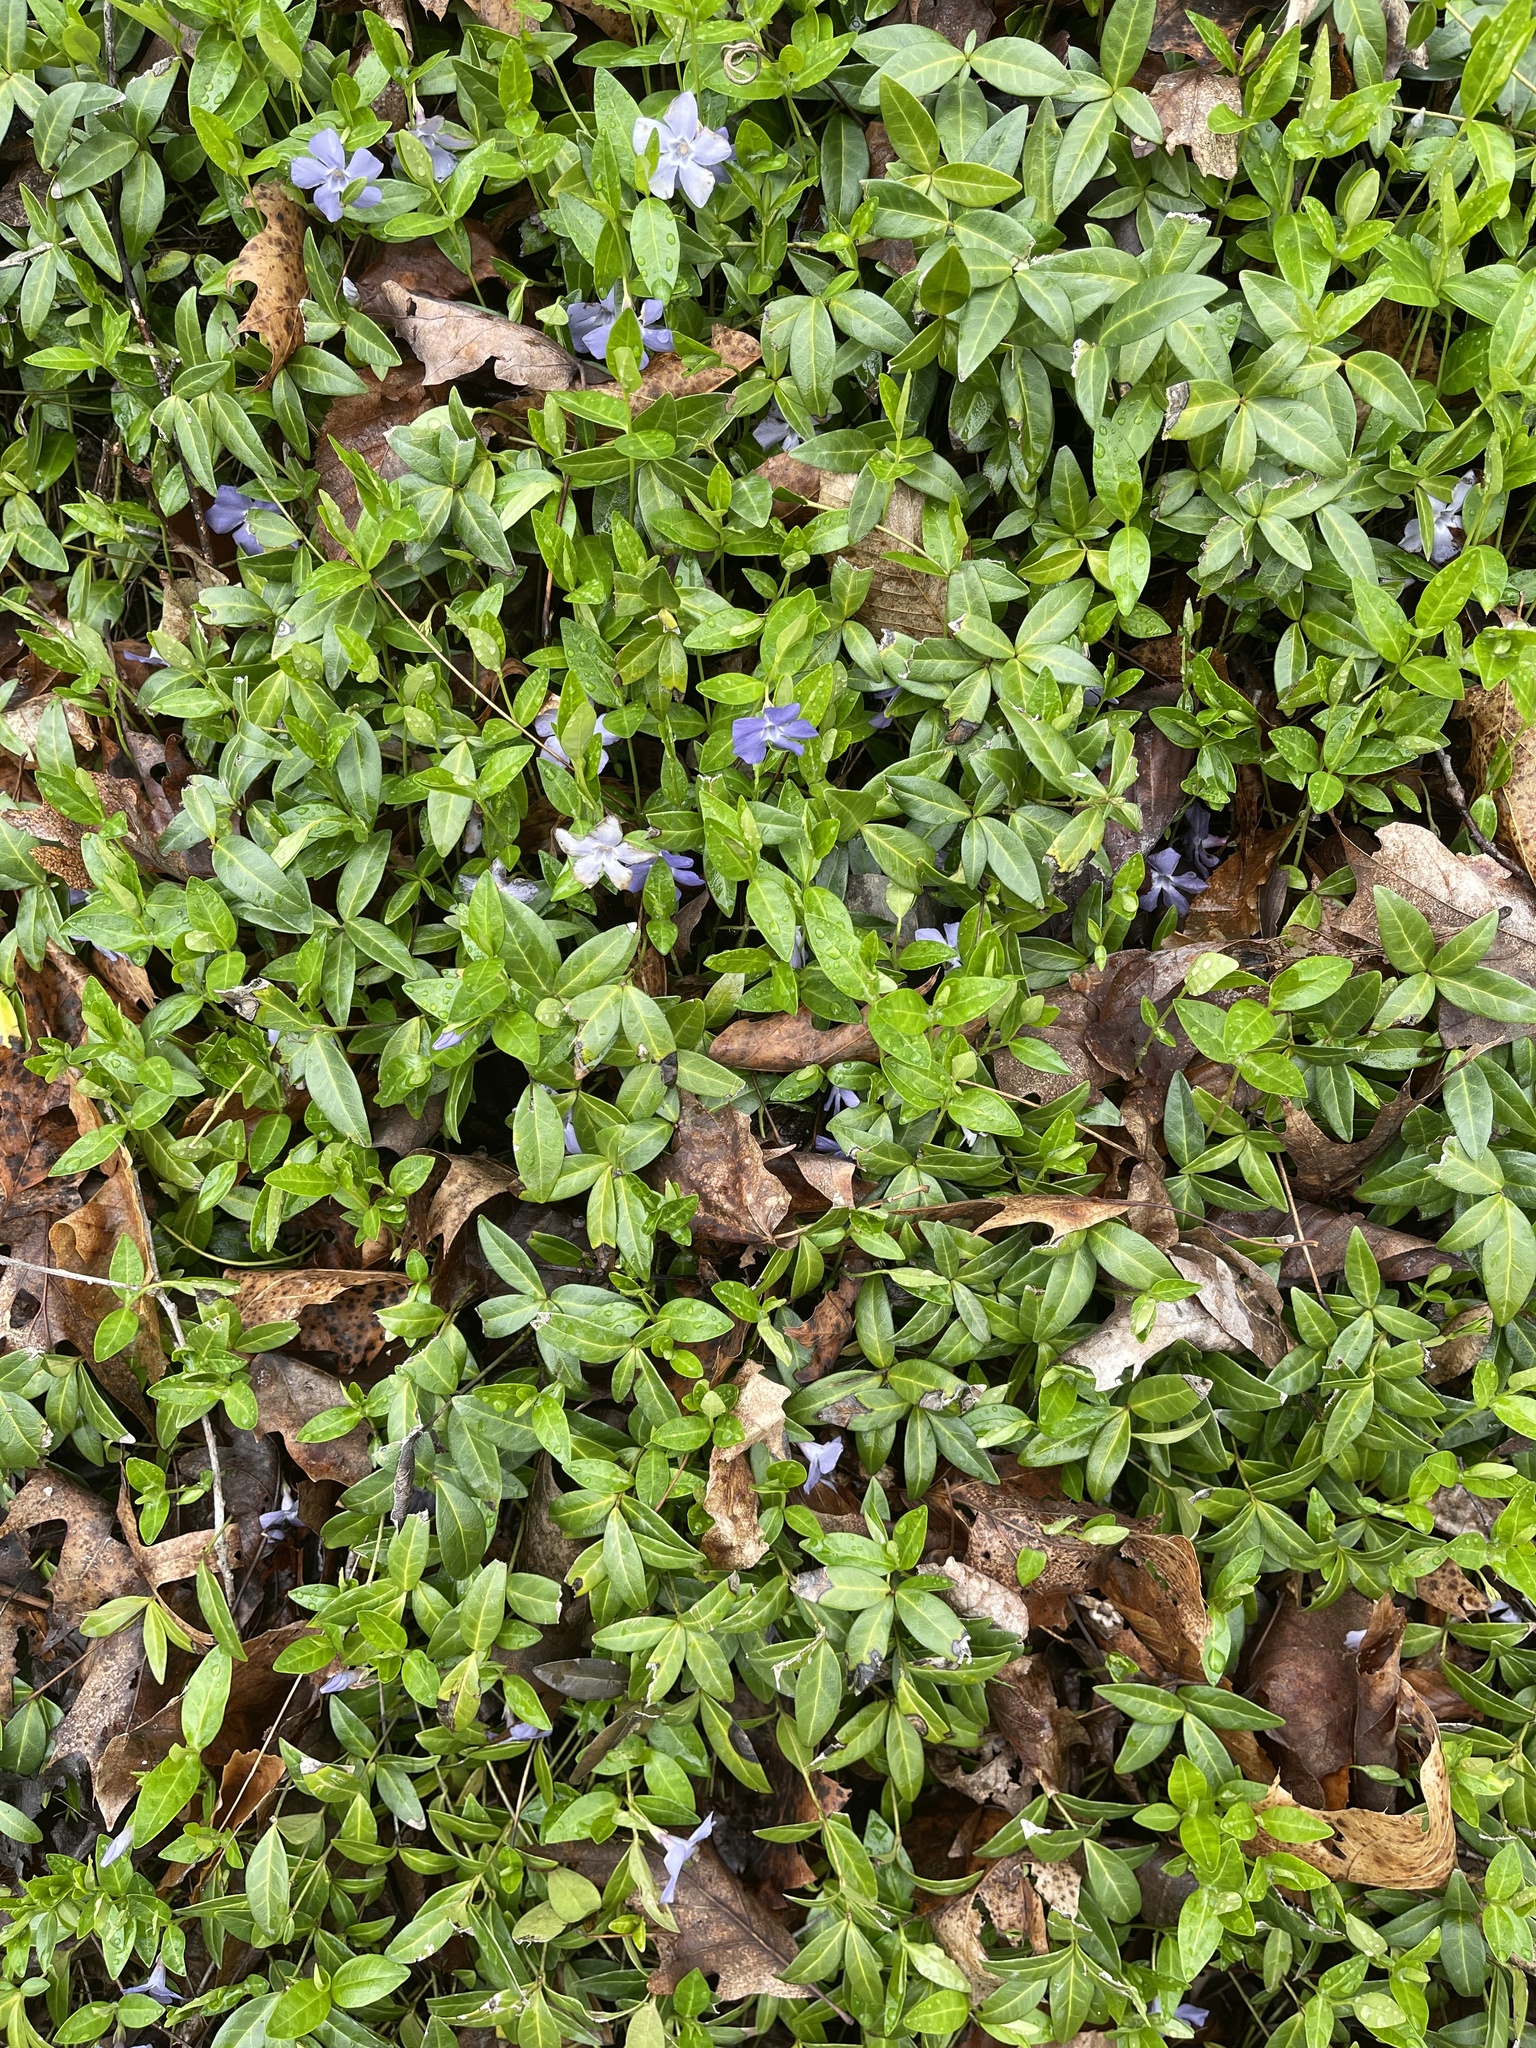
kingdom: Plantae
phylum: Tracheophyta
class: Magnoliopsida
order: Gentianales
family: Apocynaceae
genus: Vinca
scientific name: Vinca minor
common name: Lesser periwinkle
